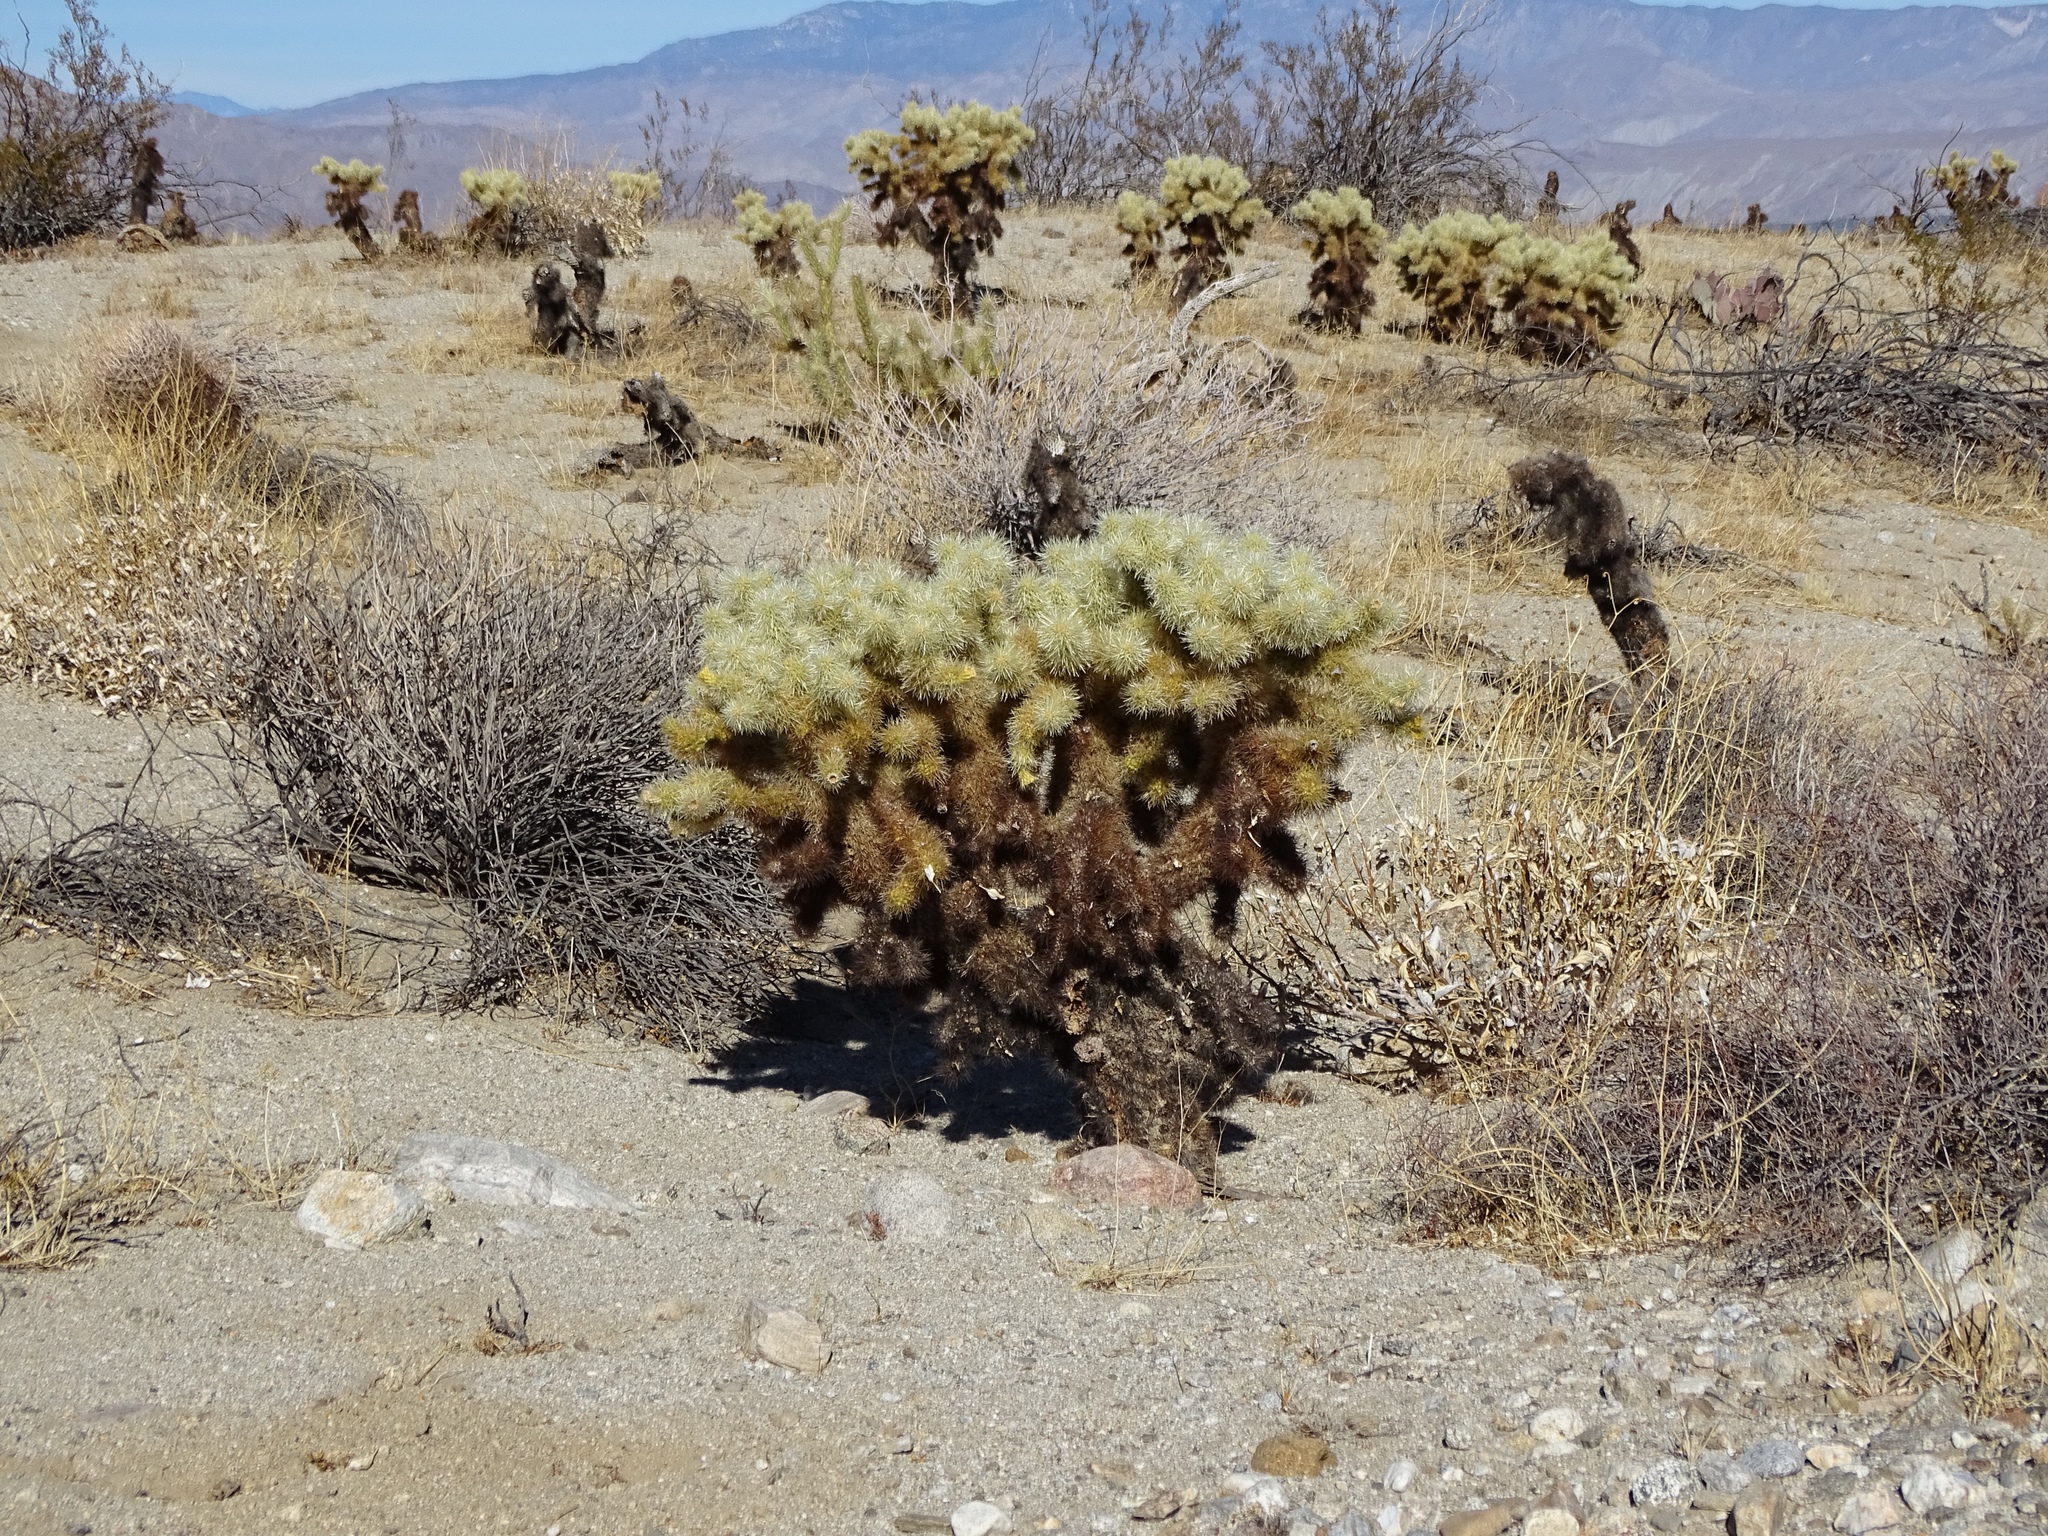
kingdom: Plantae
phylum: Tracheophyta
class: Magnoliopsida
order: Caryophyllales
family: Cactaceae
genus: Cylindropuntia
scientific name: Cylindropuntia fosbergii
